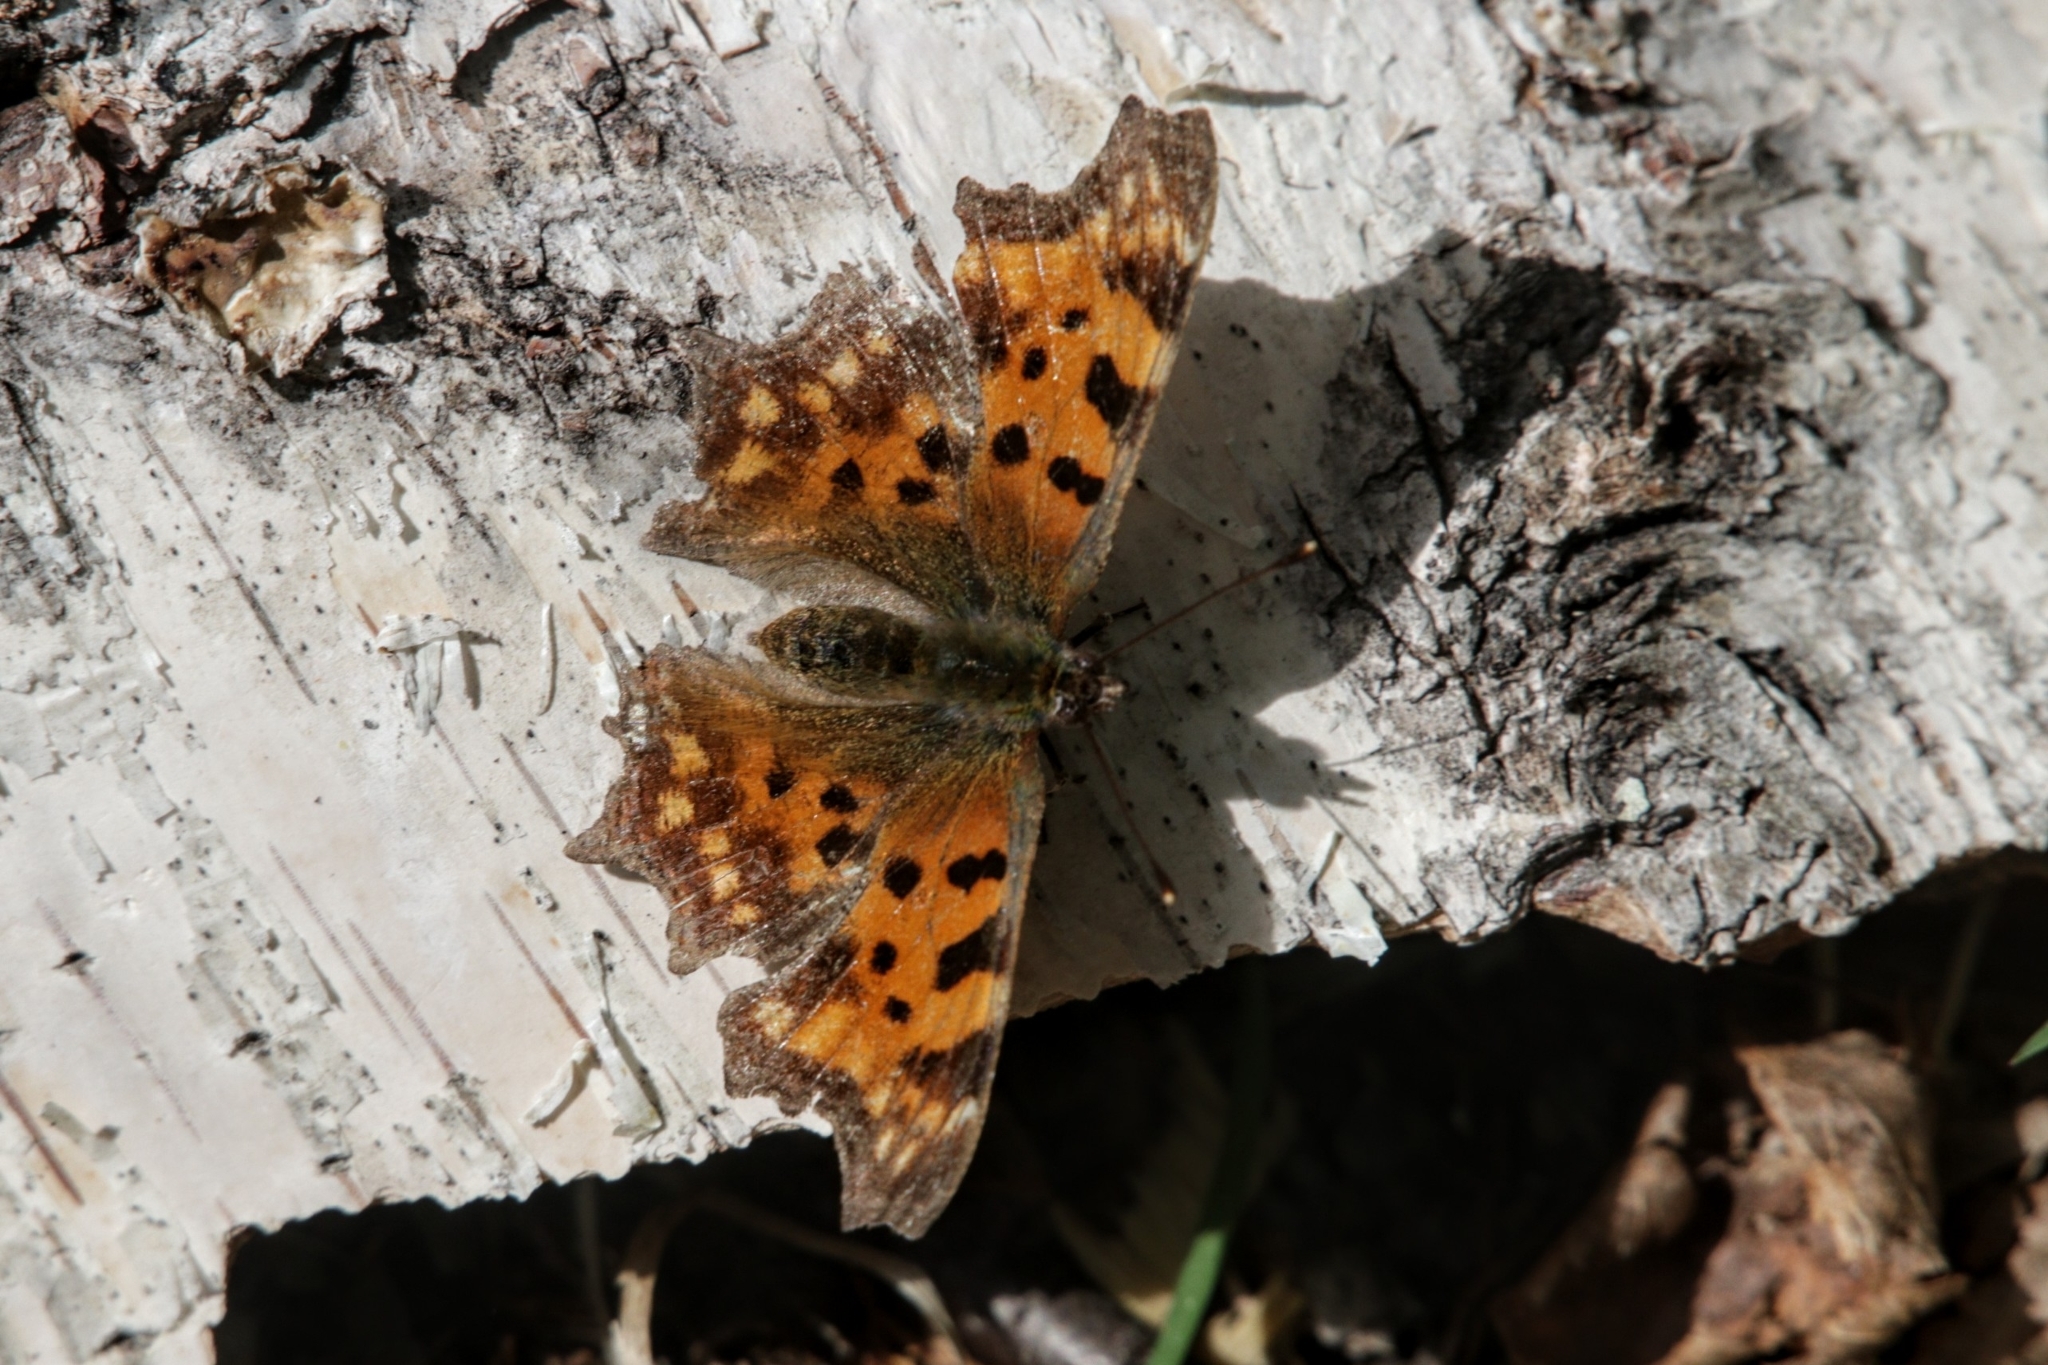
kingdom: Animalia
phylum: Arthropoda
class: Insecta
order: Lepidoptera
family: Nymphalidae
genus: Polygonia
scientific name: Polygonia c-album
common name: Comma
